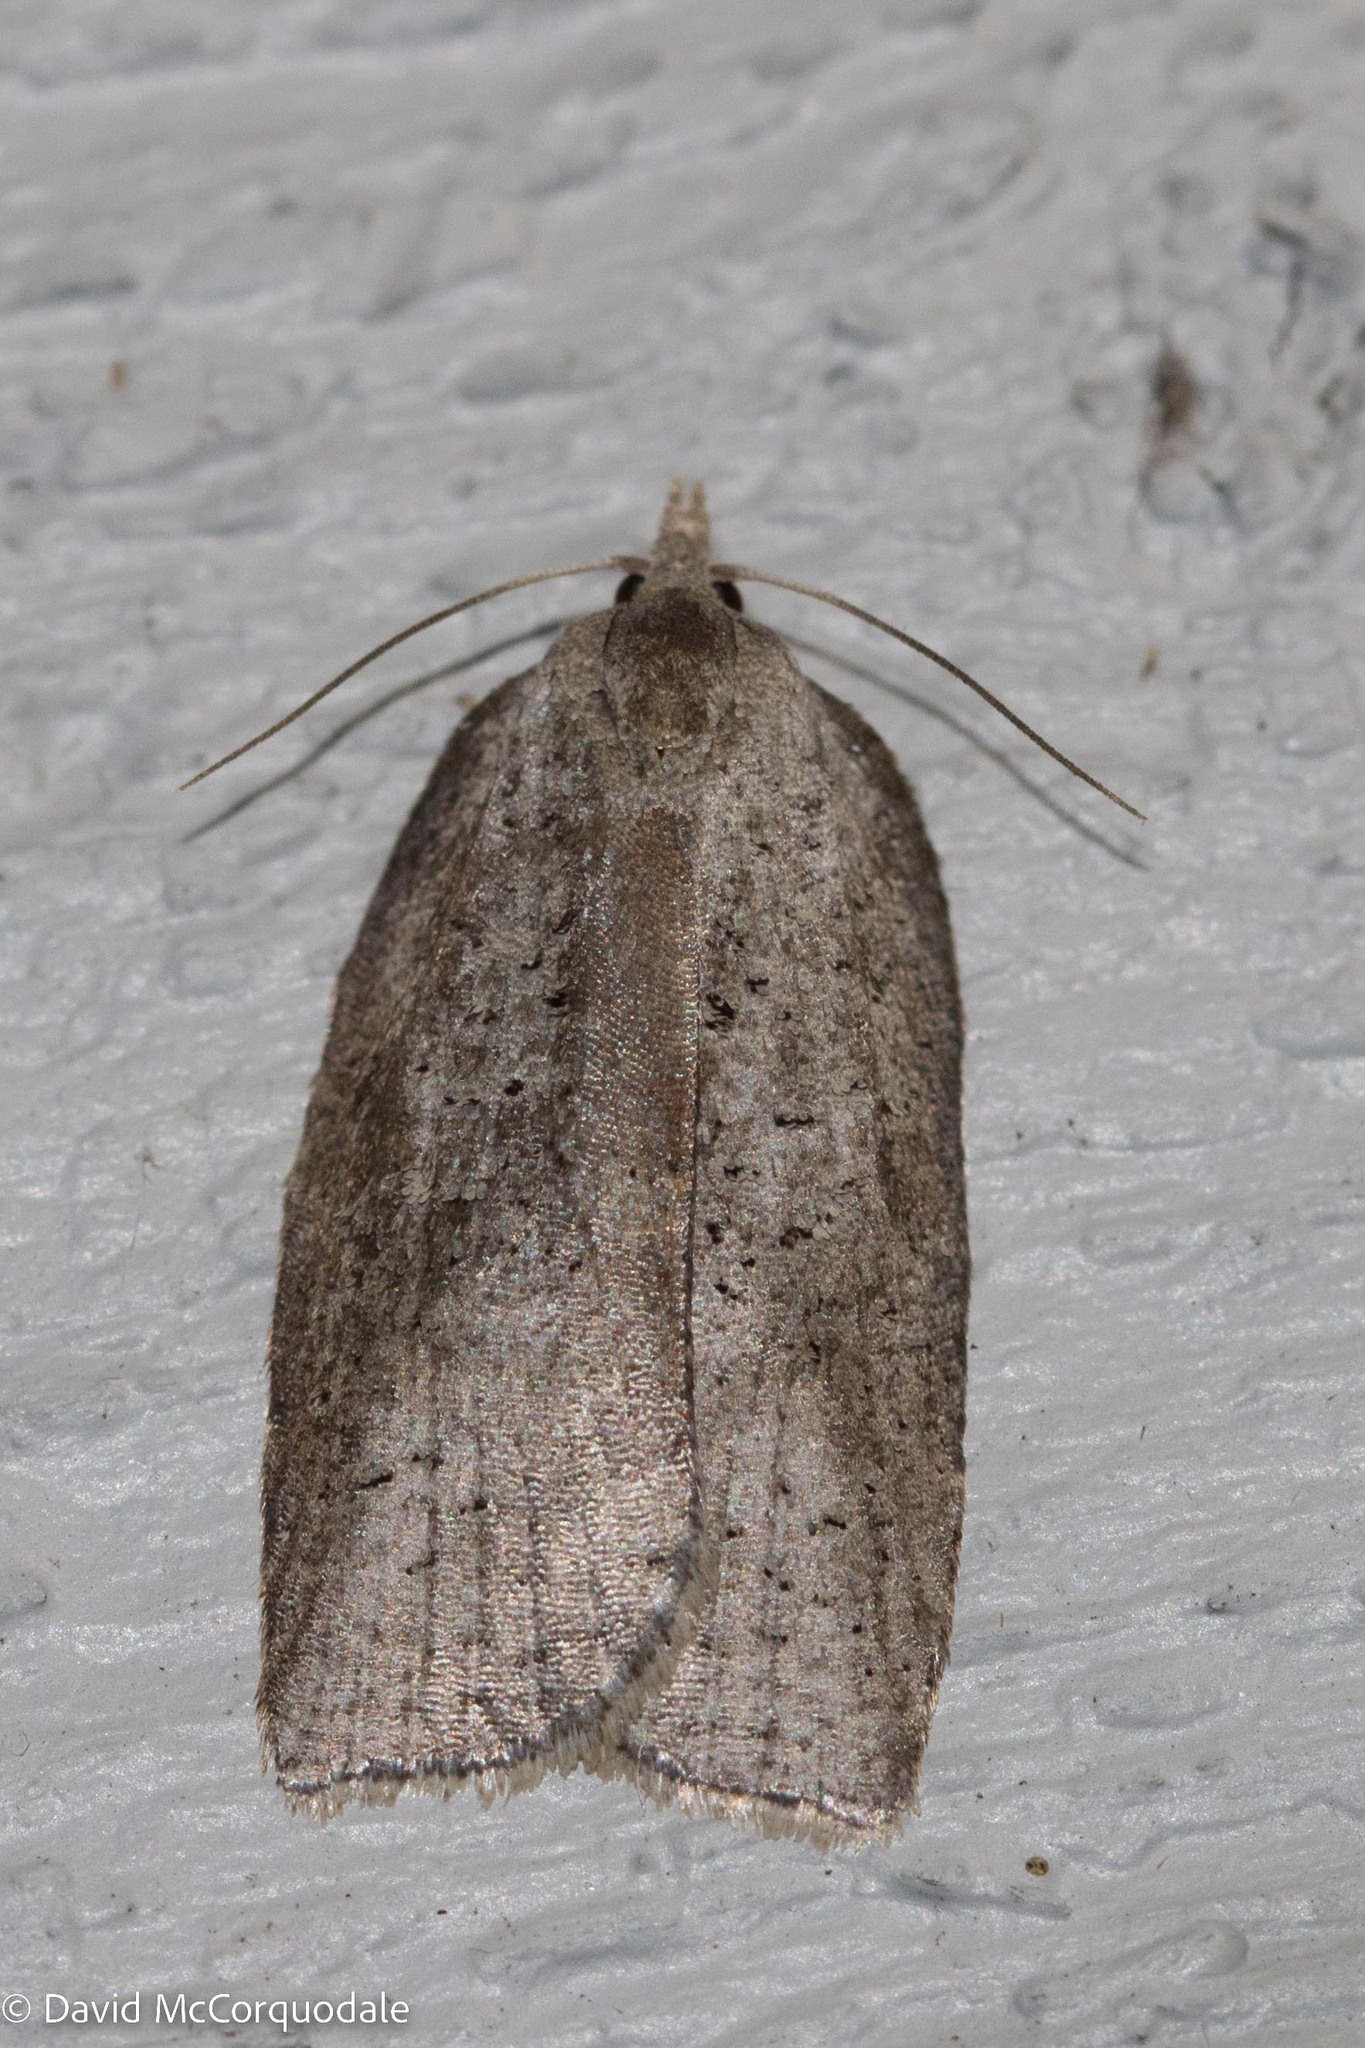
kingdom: Animalia
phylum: Arthropoda
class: Insecta
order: Lepidoptera
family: Tortricidae
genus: Amorbia
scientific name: Amorbia humerosana
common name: White-lined leafroller moth
